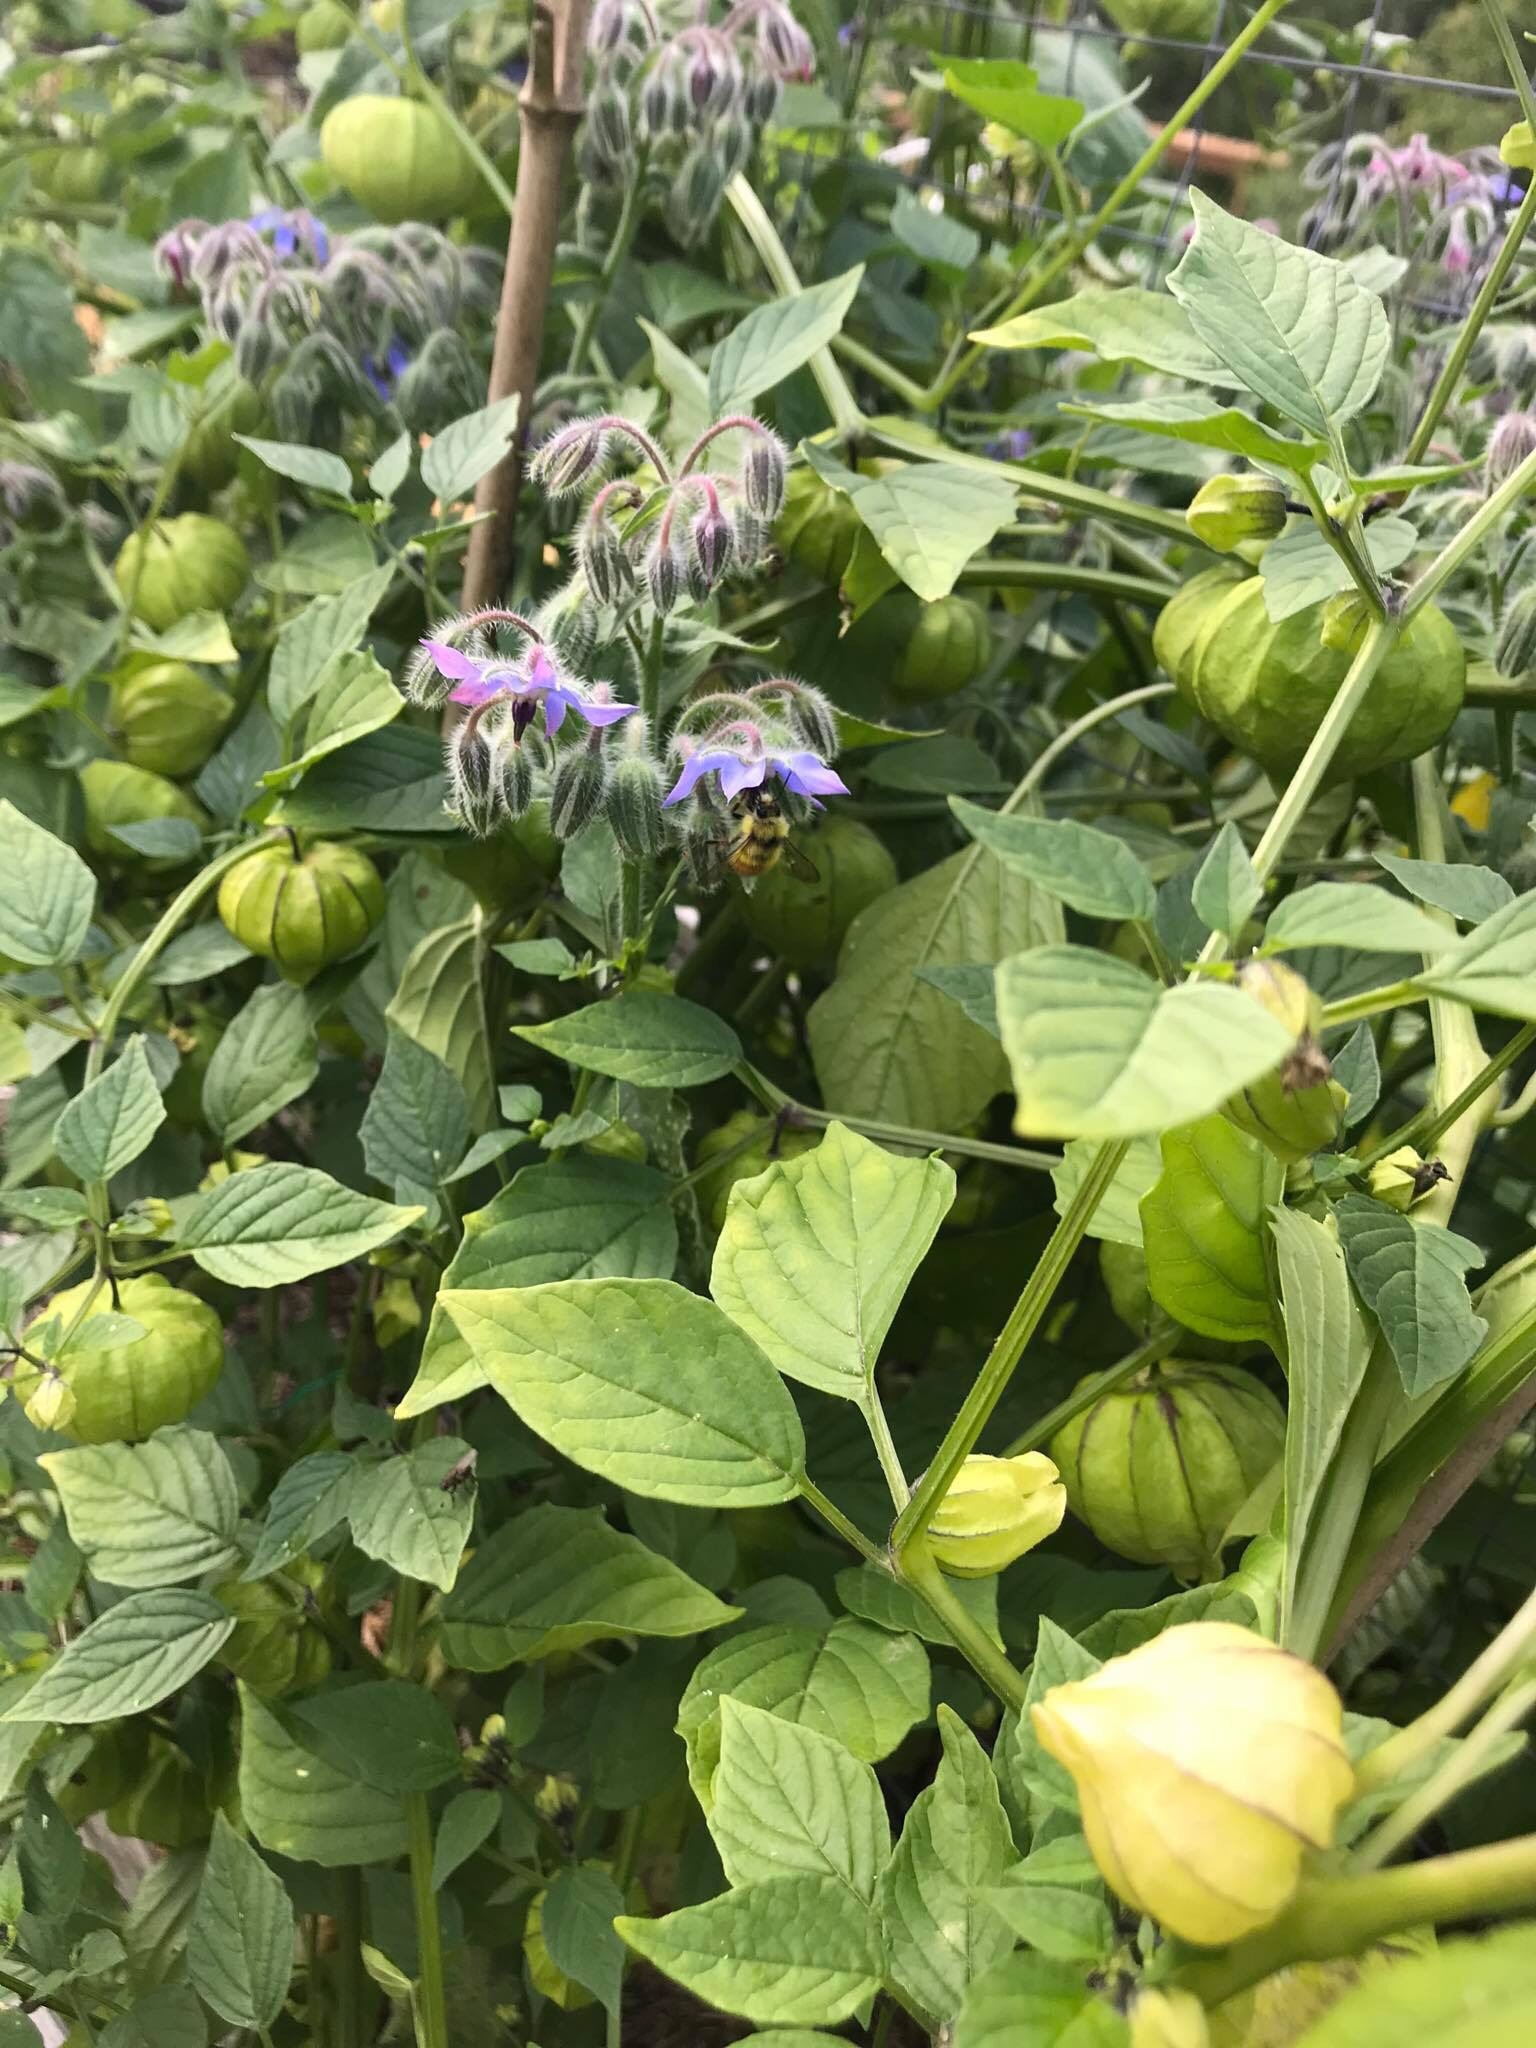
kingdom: Animalia
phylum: Arthropoda
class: Insecta
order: Hymenoptera
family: Apidae
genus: Bombus
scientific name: Bombus vancouverensis
